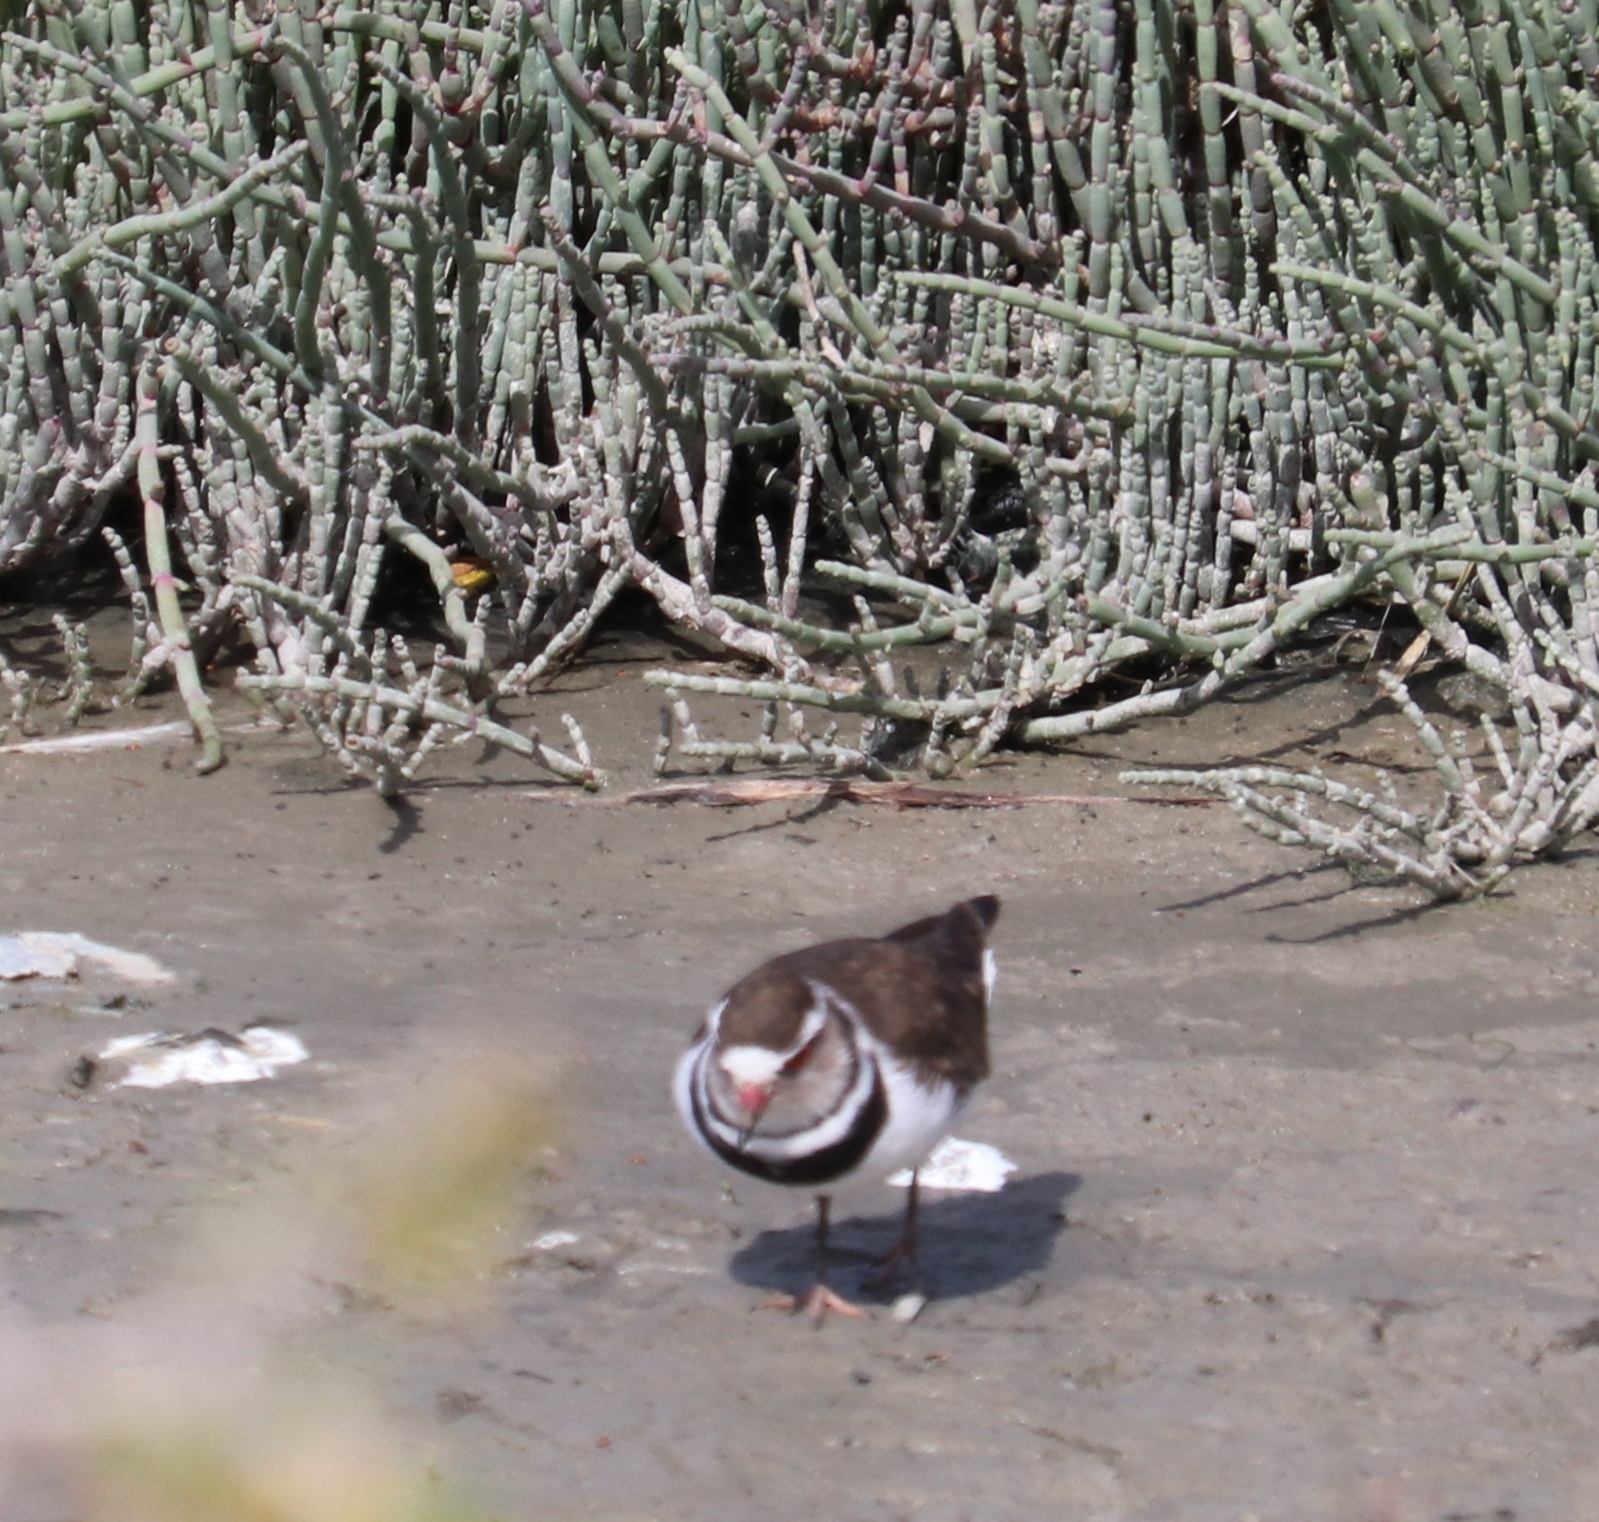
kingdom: Animalia
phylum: Chordata
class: Aves
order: Charadriiformes
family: Charadriidae
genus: Charadrius
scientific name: Charadrius tricollaris
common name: Three-banded plover
